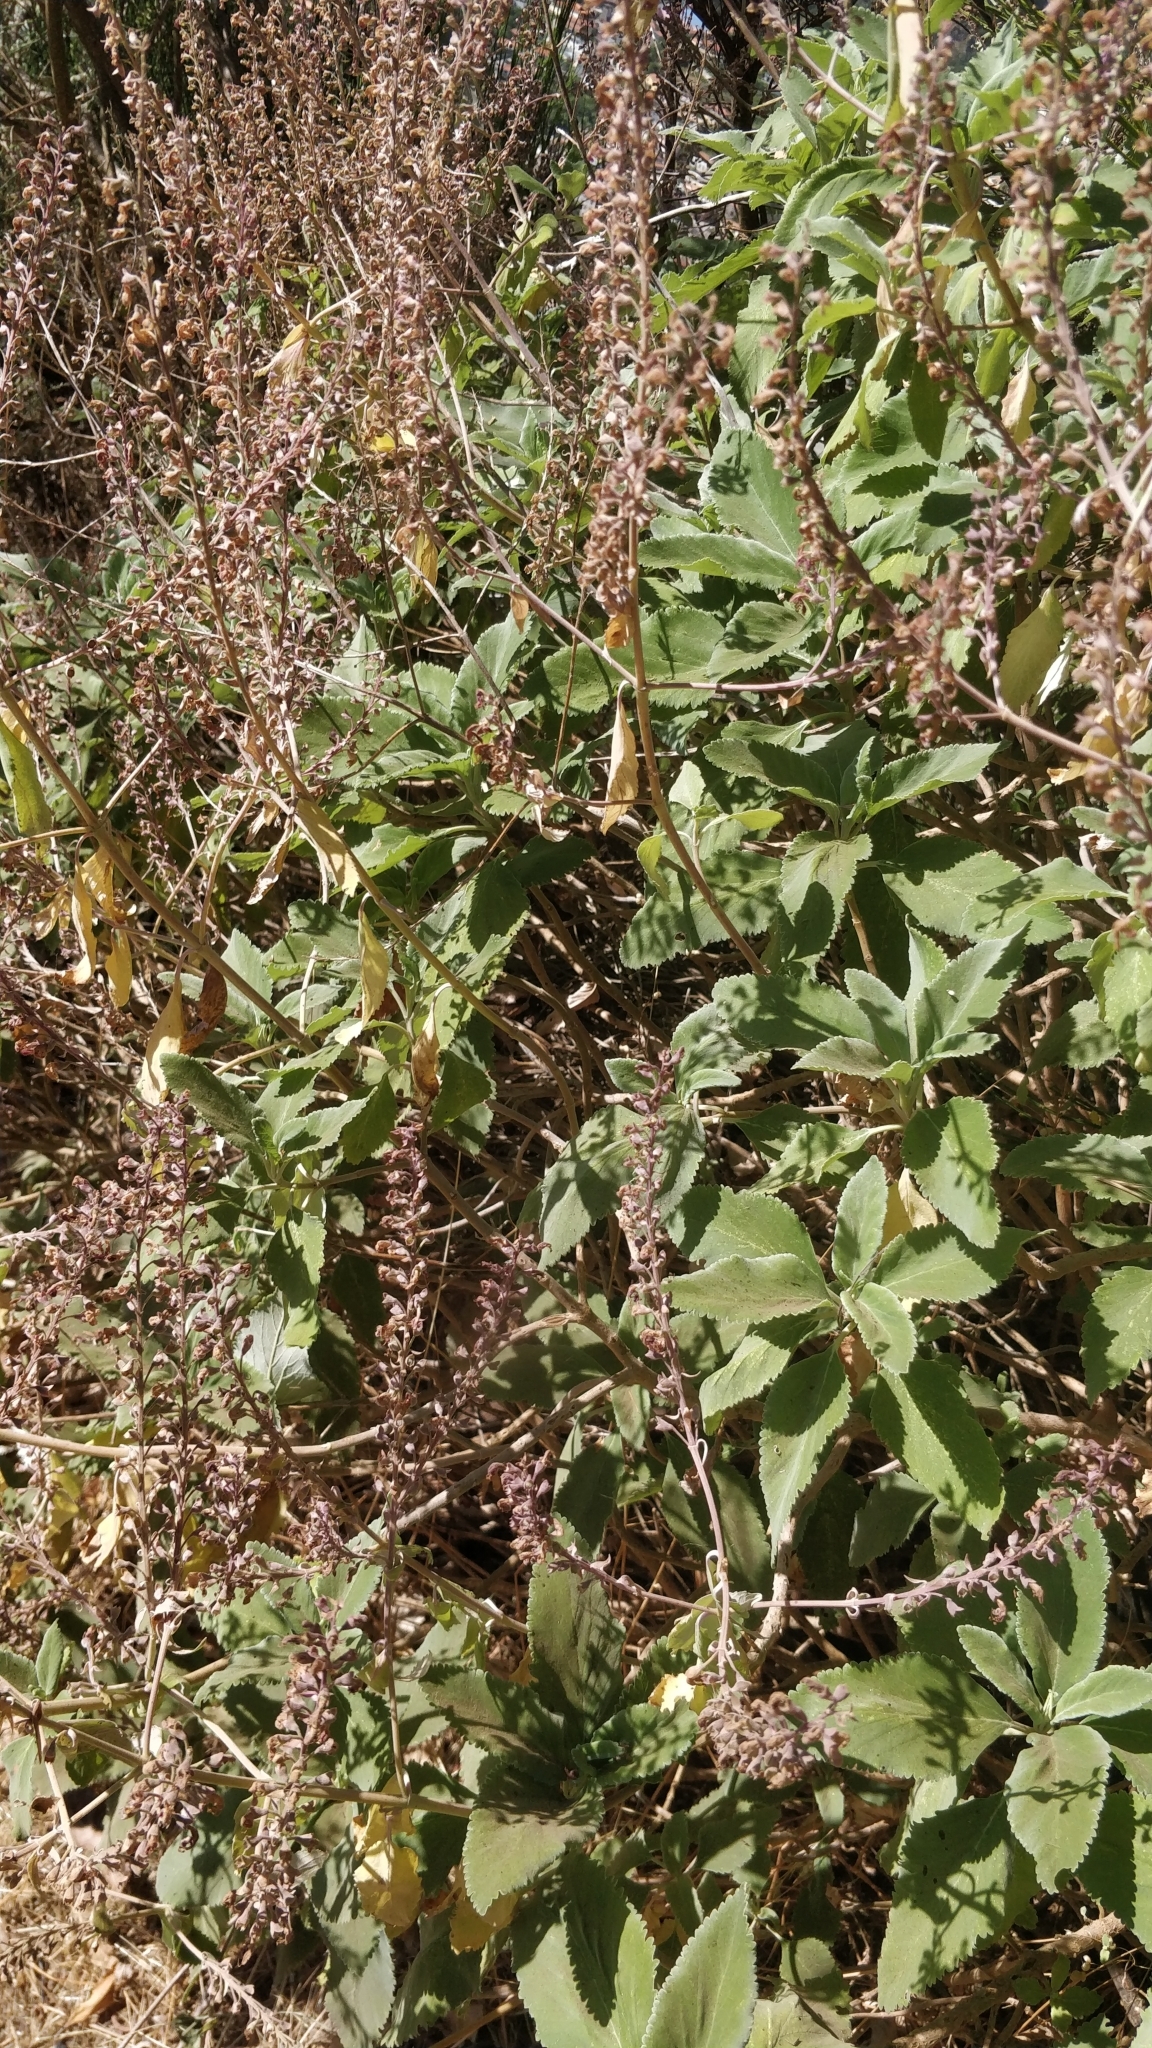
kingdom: Plantae
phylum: Tracheophyta
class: Magnoliopsida
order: Lamiales
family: Lamiaceae
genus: Teucrium
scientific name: Teucrium betonicum
